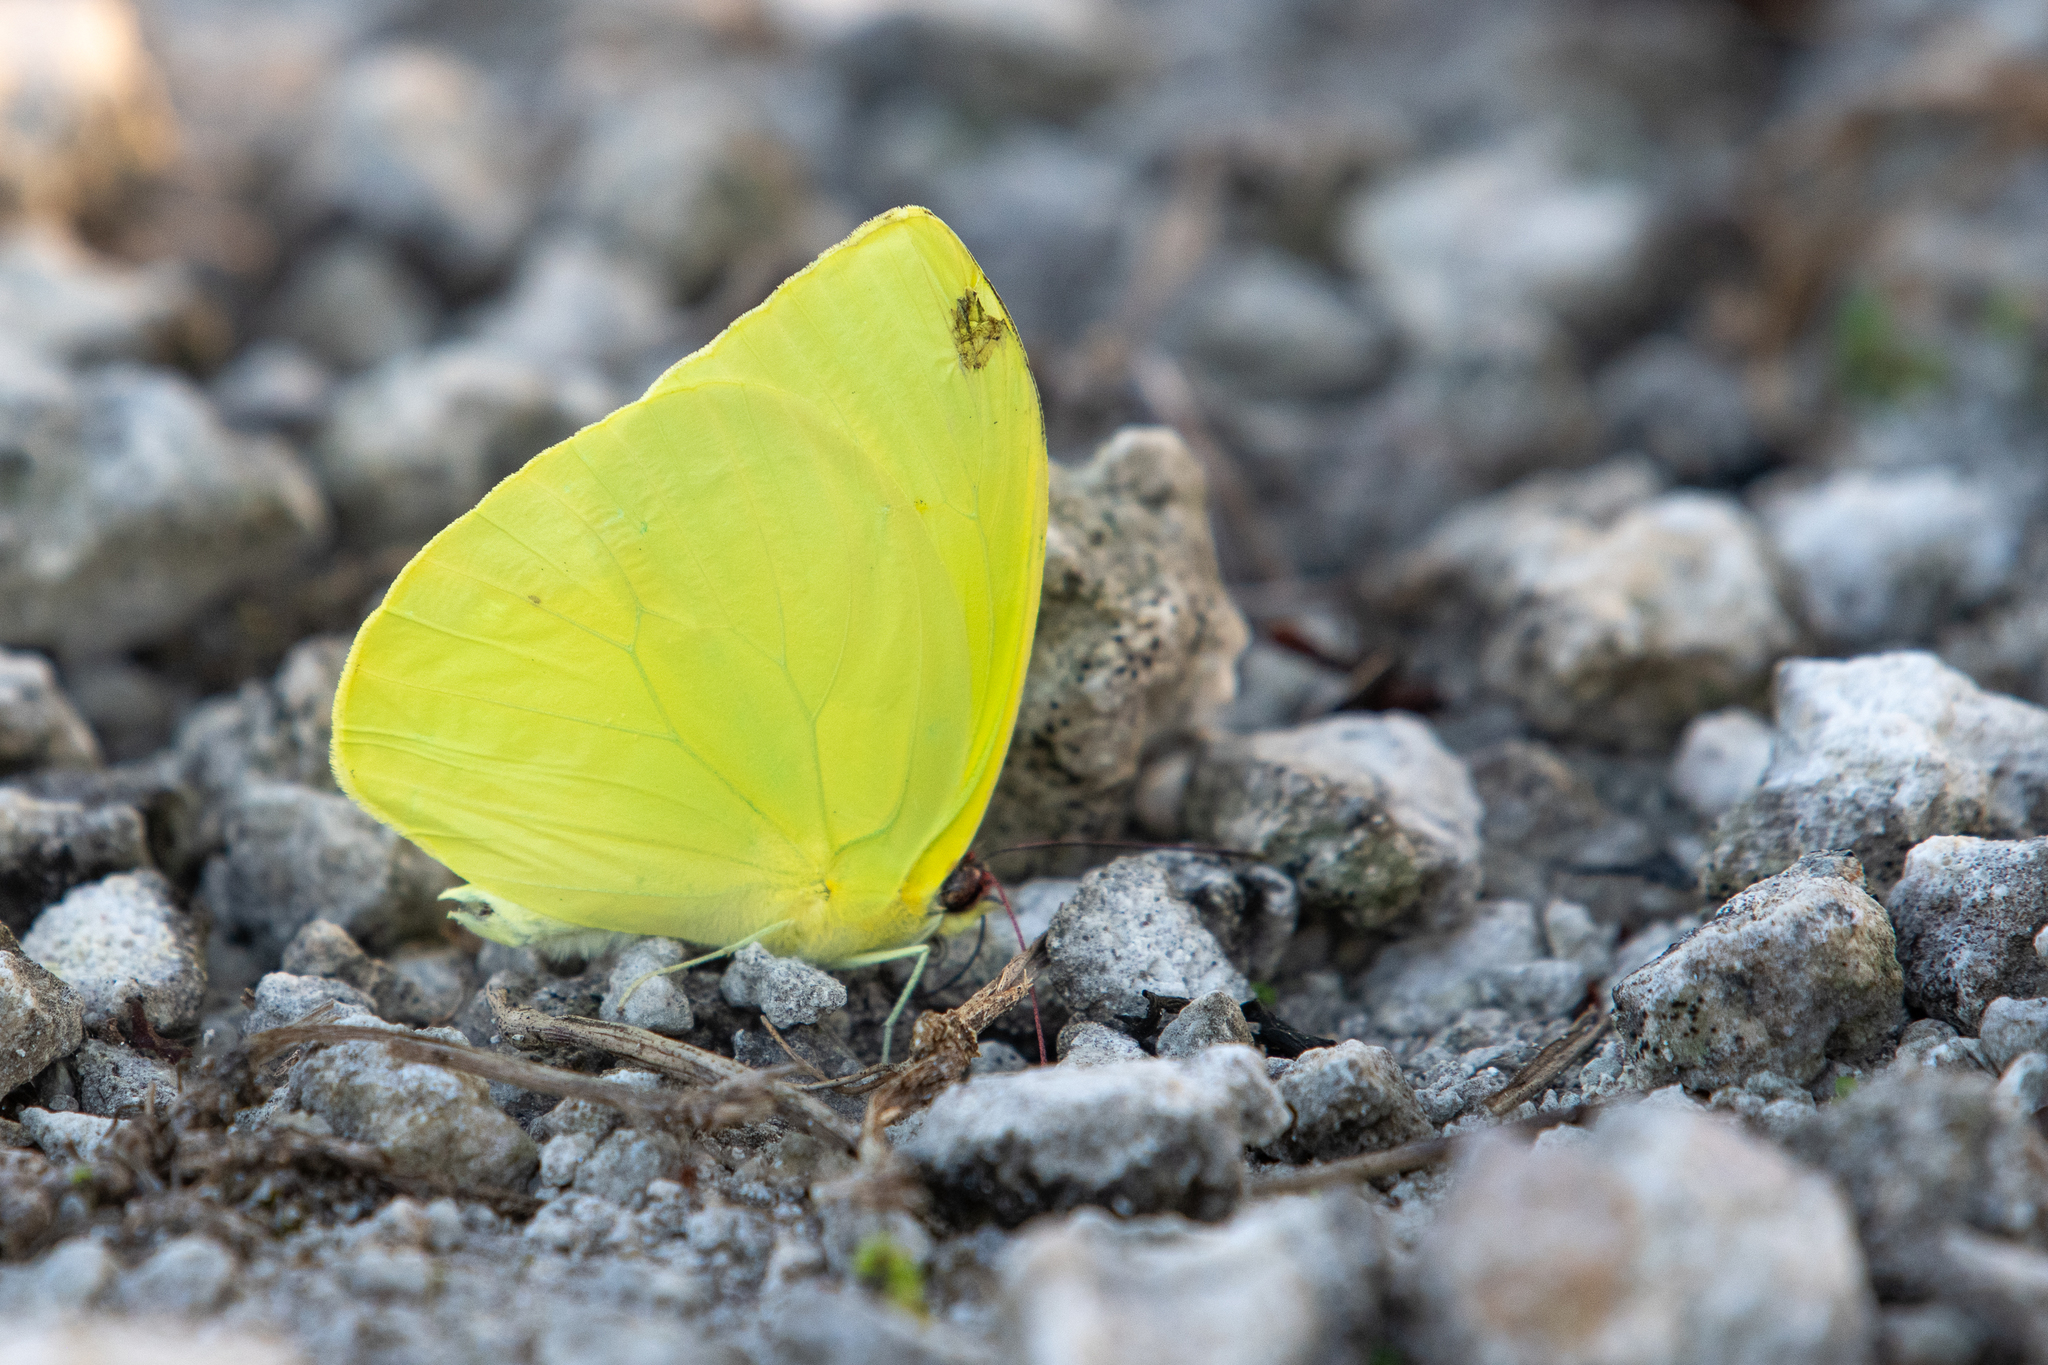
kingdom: Animalia
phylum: Arthropoda
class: Insecta
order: Lepidoptera
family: Pieridae
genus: Phoebis
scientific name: Phoebis agarithe
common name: Large orange sulphur
